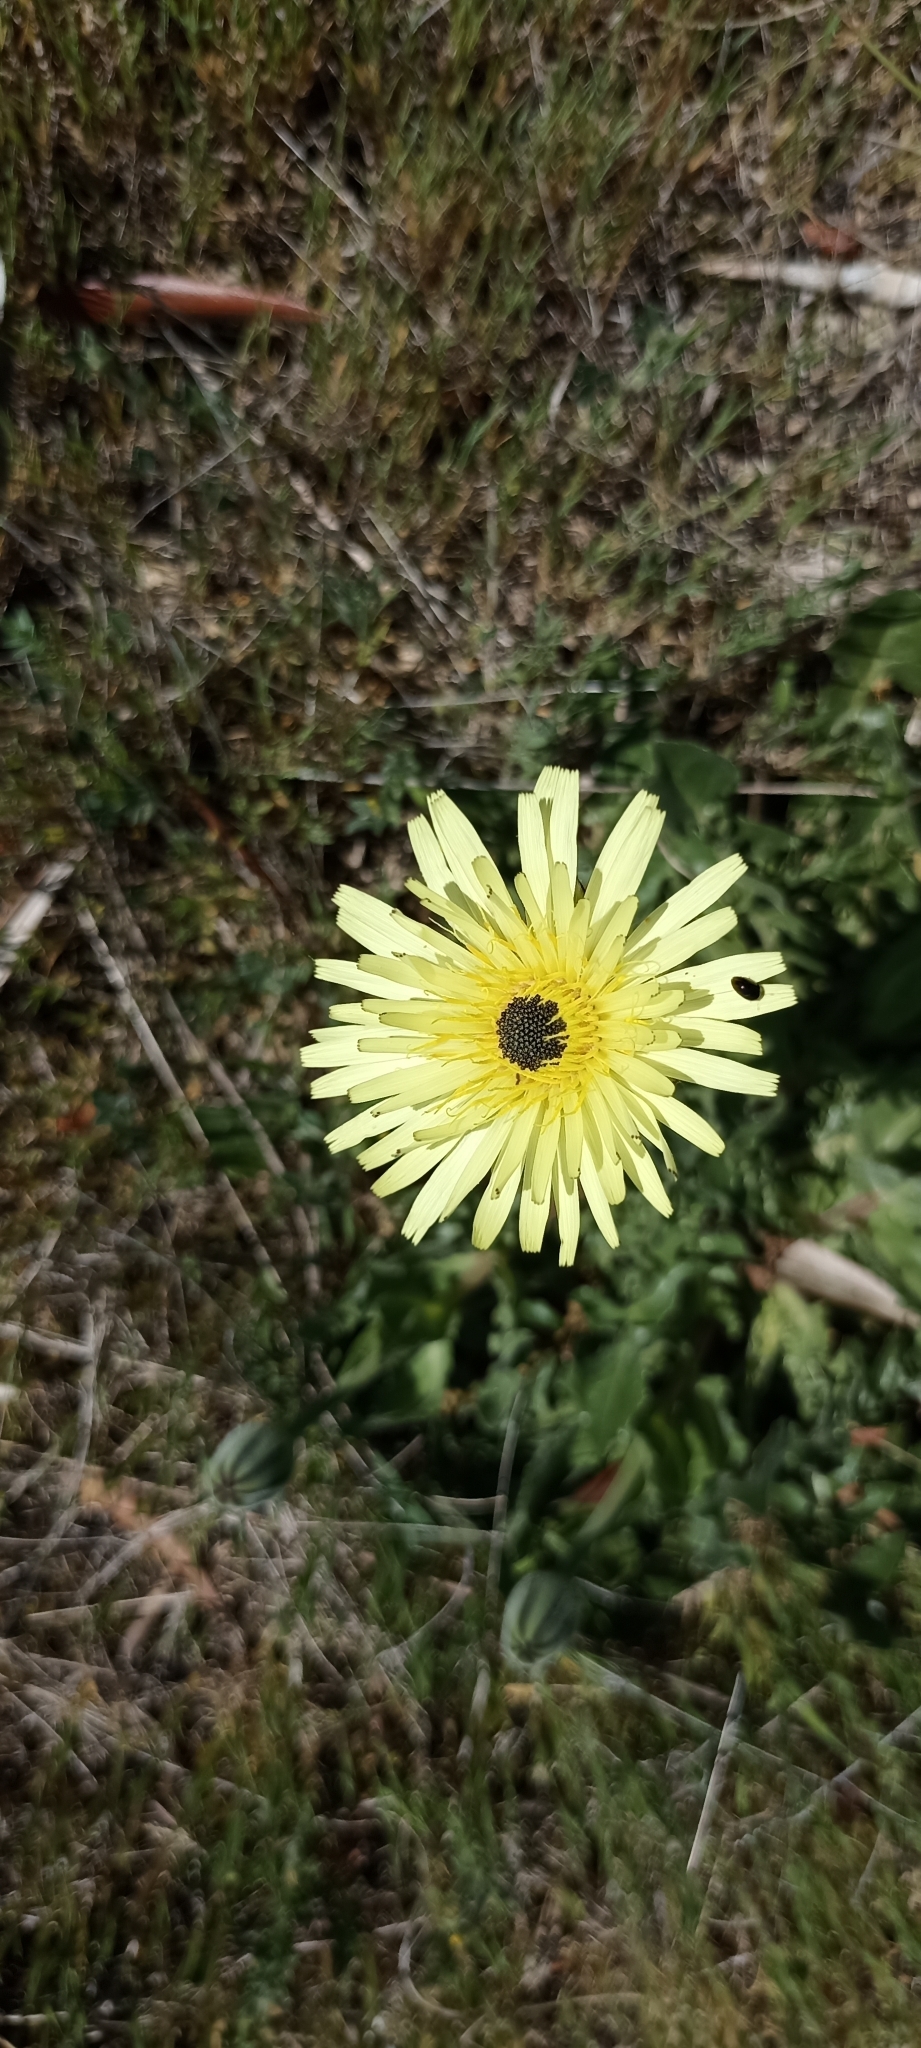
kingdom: Plantae
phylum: Tracheophyta
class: Magnoliopsida
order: Asterales
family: Asteraceae
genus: Urospermum
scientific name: Urospermum dalechampii
